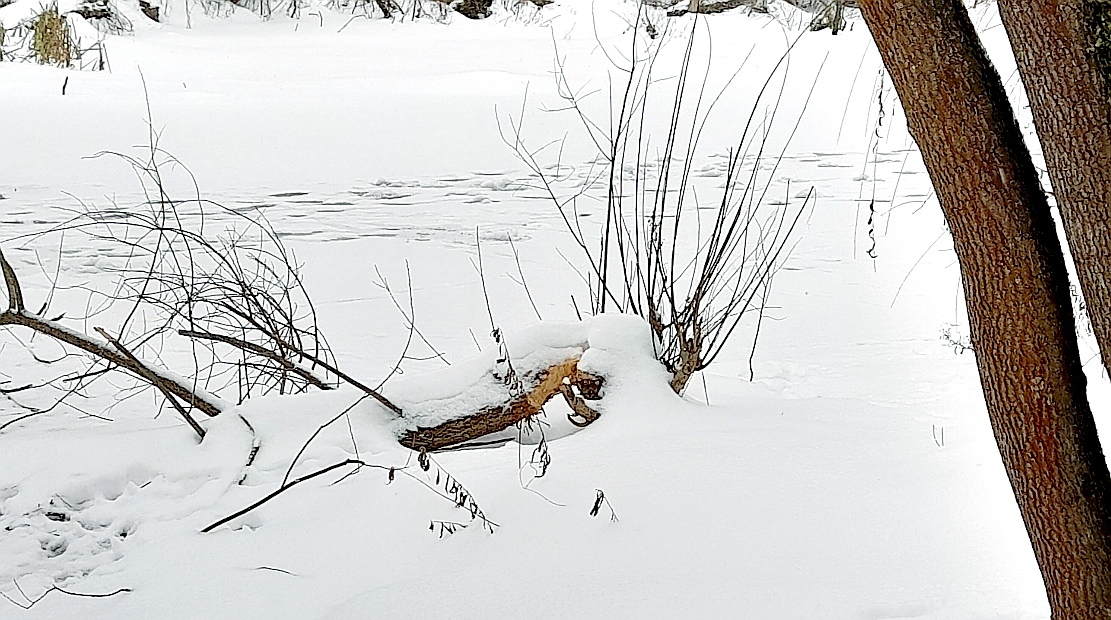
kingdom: Animalia
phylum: Chordata
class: Mammalia
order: Rodentia
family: Castoridae
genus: Castor
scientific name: Castor fiber
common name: Eurasian beaver
